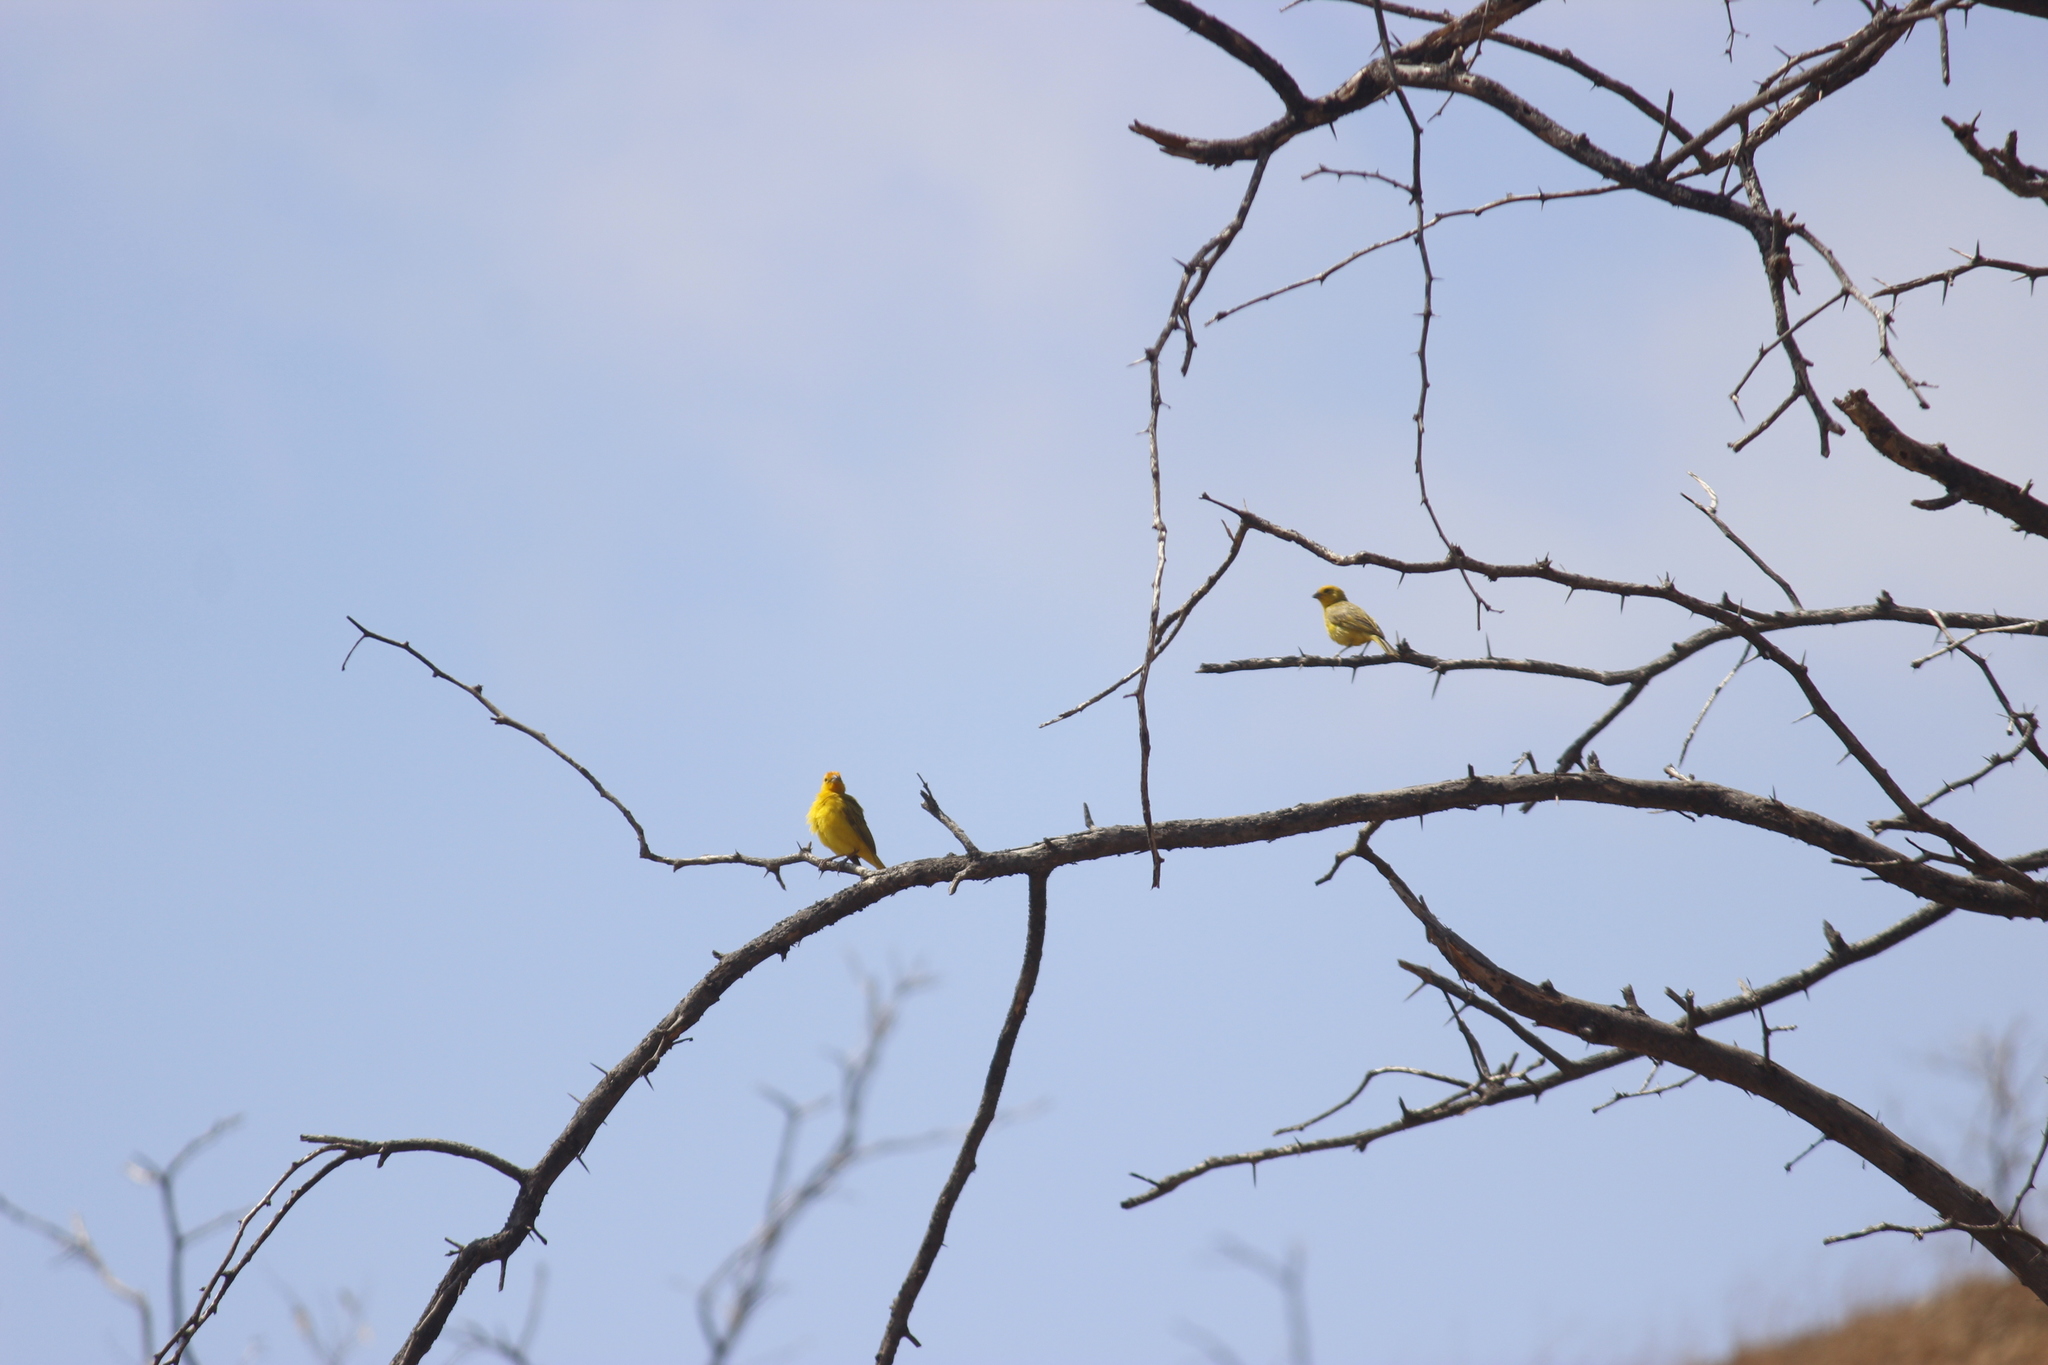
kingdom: Animalia
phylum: Chordata
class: Aves
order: Passeriformes
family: Thraupidae
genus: Sicalis
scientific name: Sicalis flaveola
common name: Saffron finch
